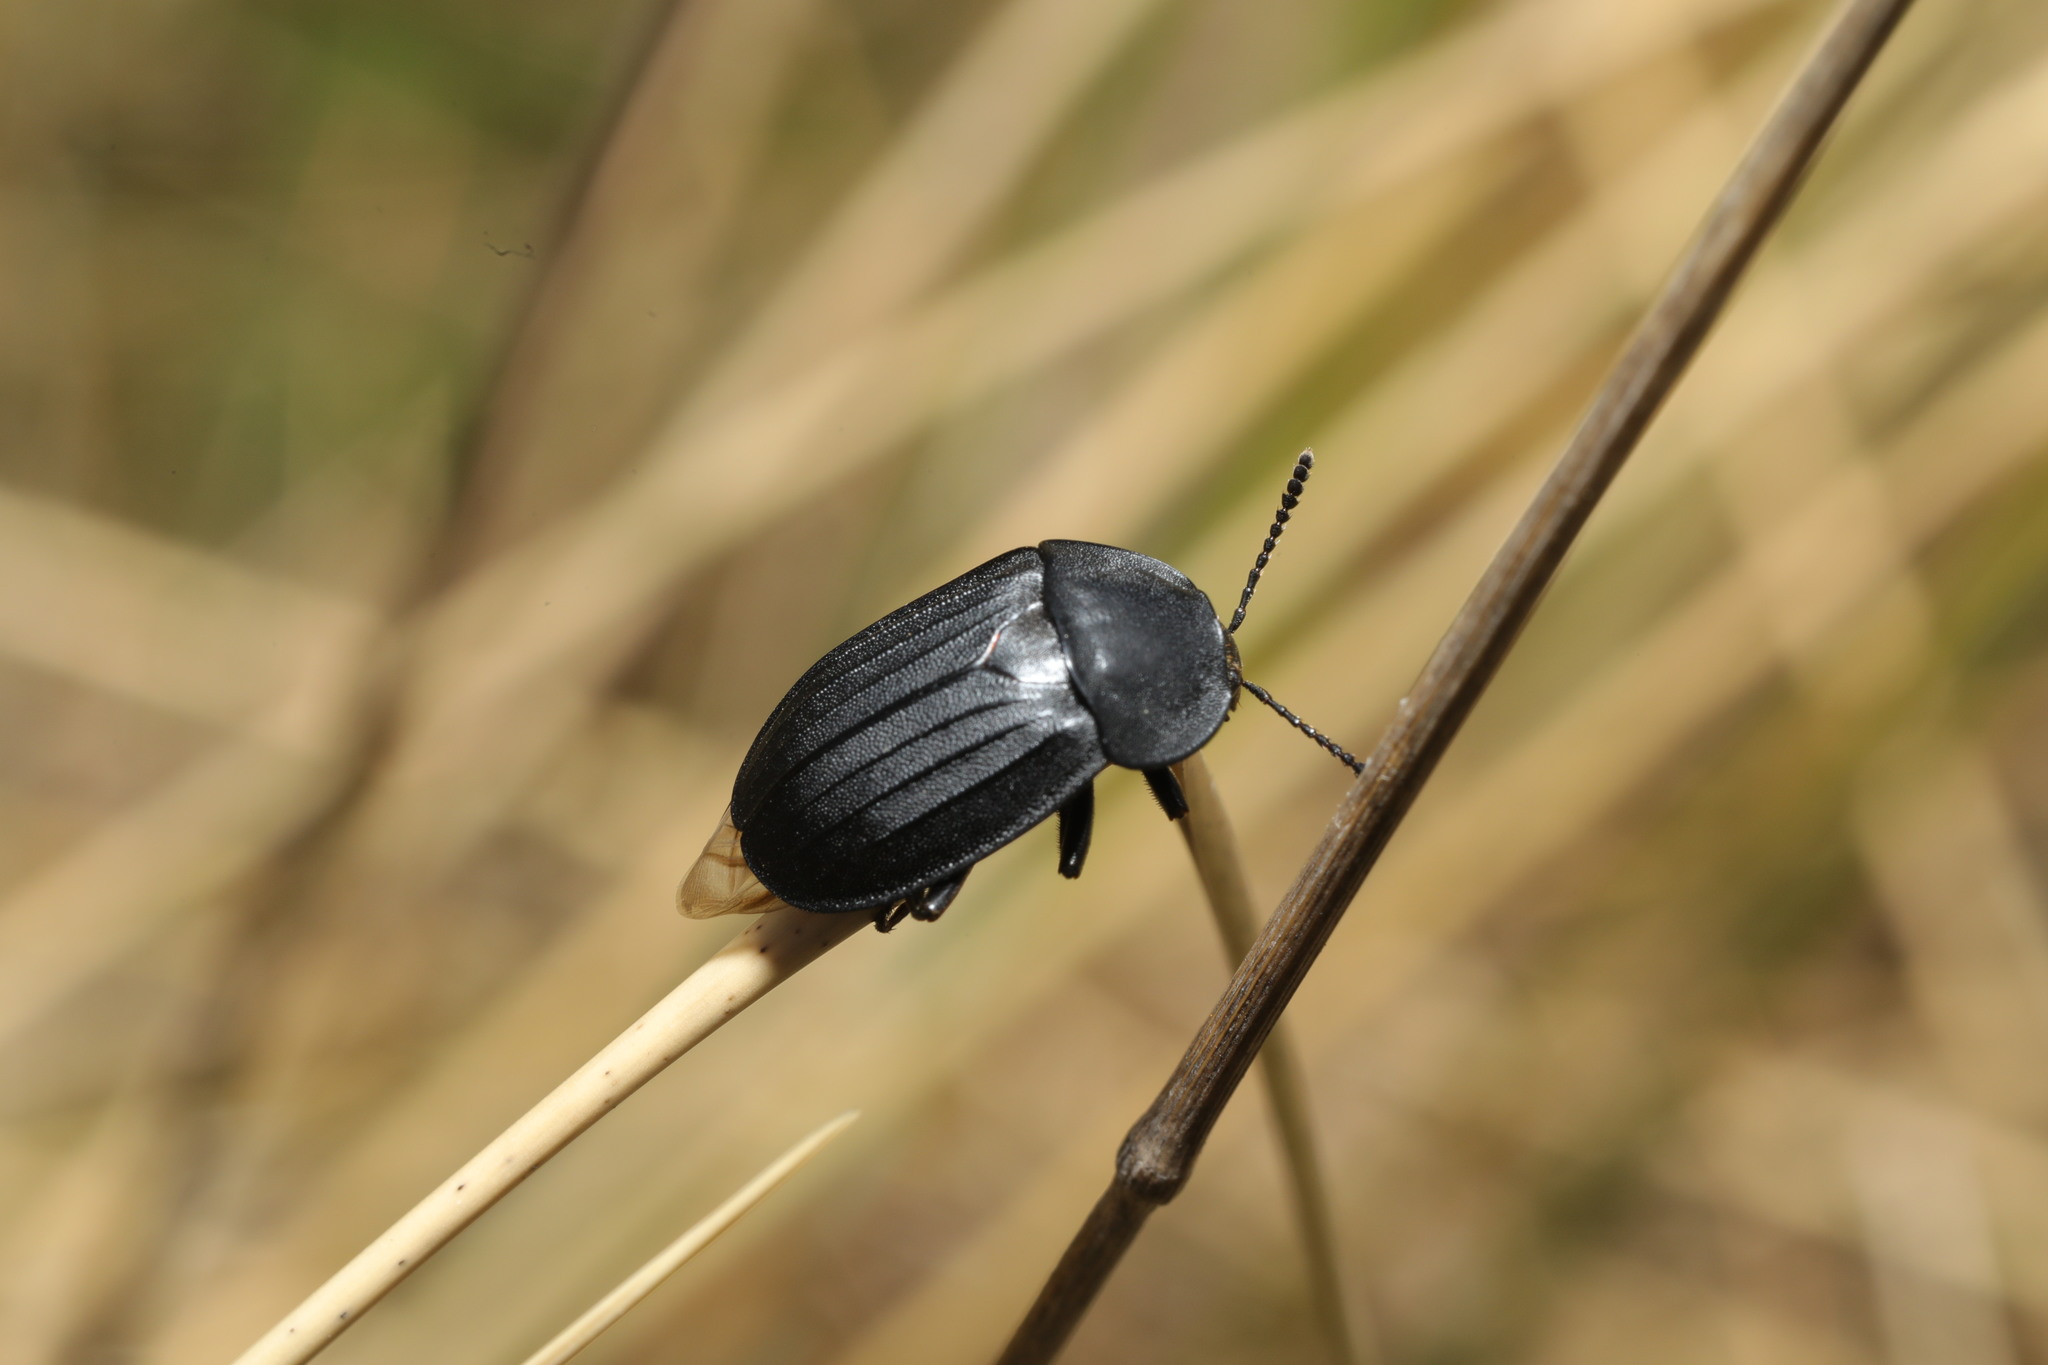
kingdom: Animalia
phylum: Arthropoda
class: Insecta
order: Coleoptera
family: Staphylinidae
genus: Silpha
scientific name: Silpha tristis
